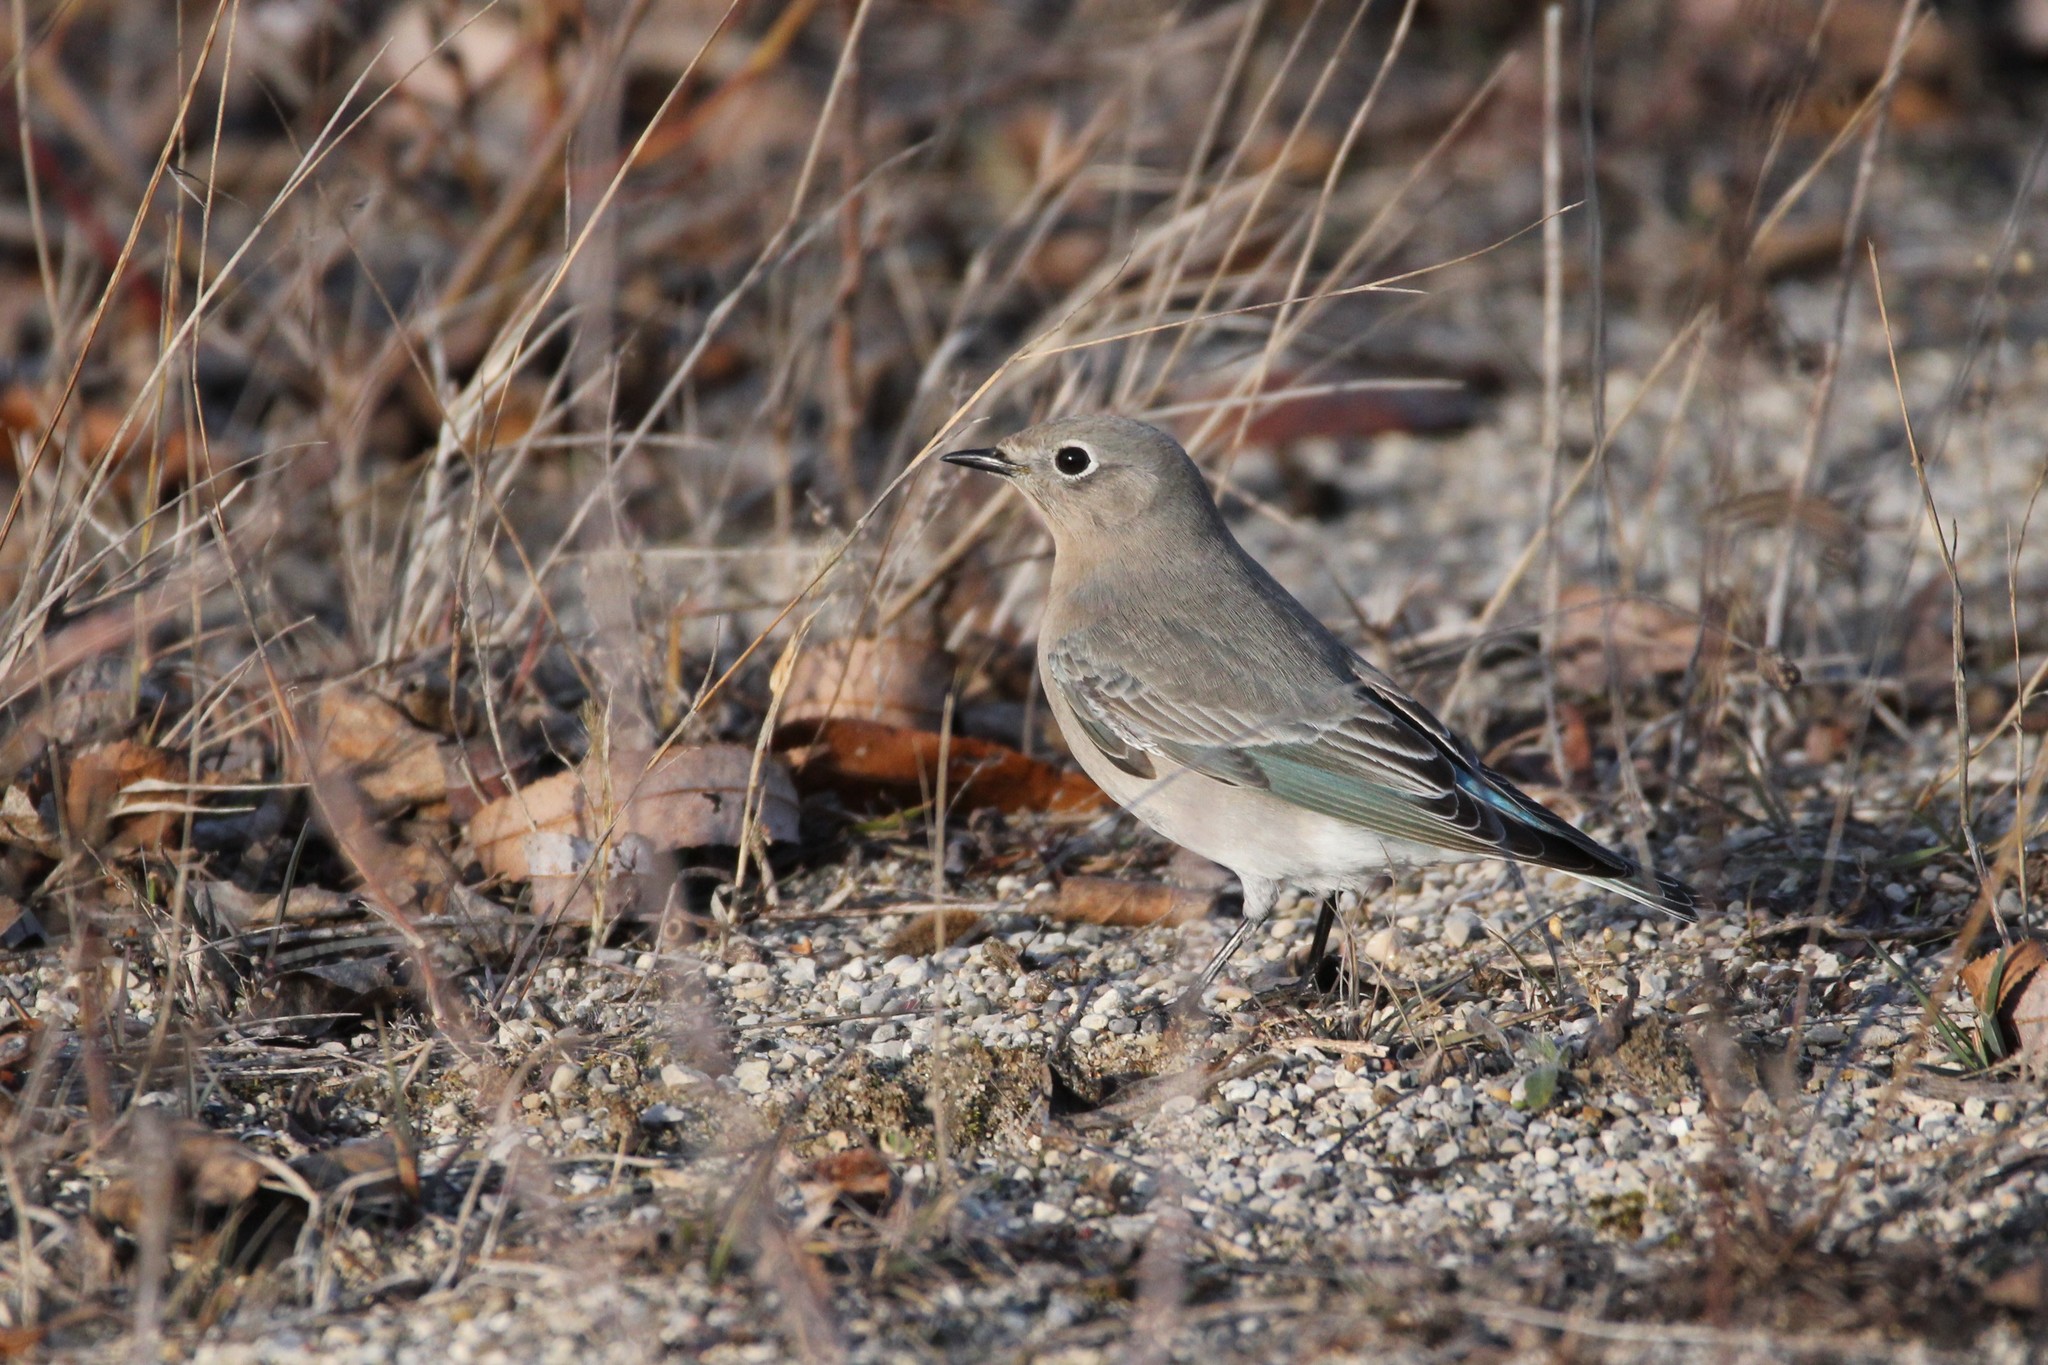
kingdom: Animalia
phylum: Chordata
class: Aves
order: Passeriformes
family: Turdidae
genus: Sialia
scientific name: Sialia currucoides
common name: Mountain bluebird
